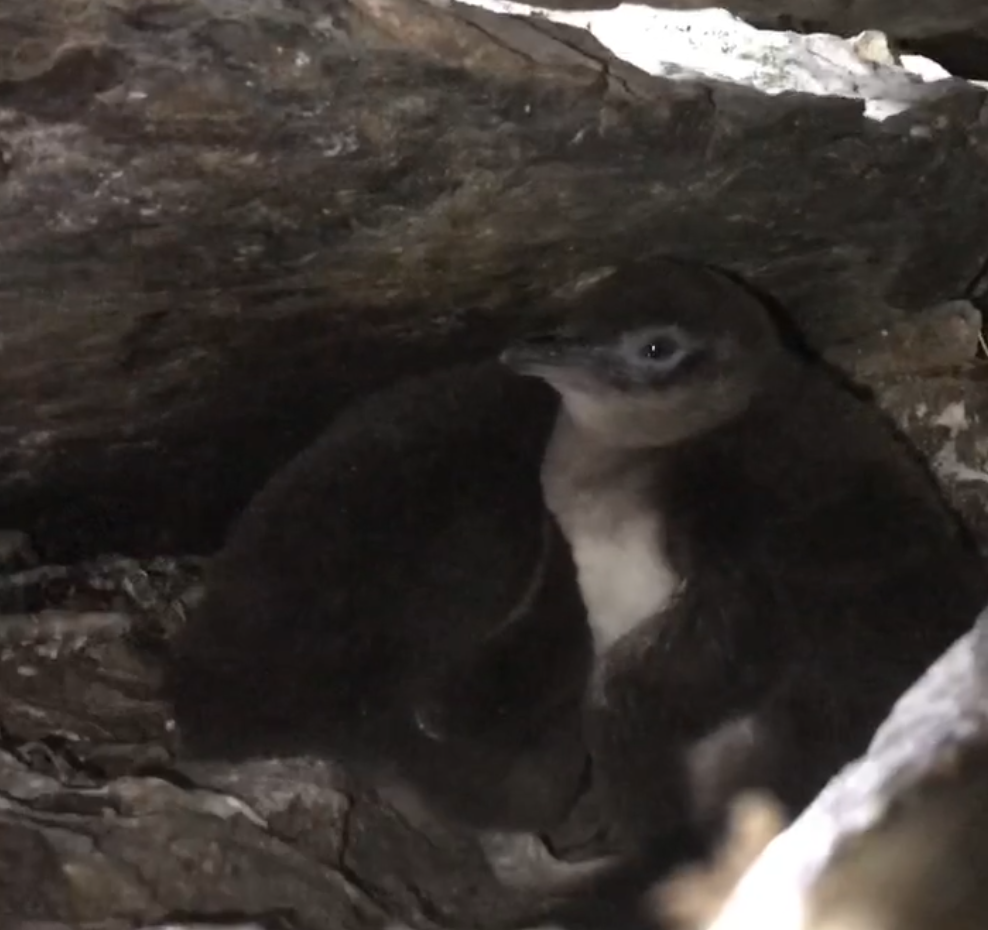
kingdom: Animalia
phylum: Chordata
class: Aves
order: Sphenisciformes
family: Spheniscidae
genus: Eudyptula
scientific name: Eudyptula minor
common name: Little penguin
